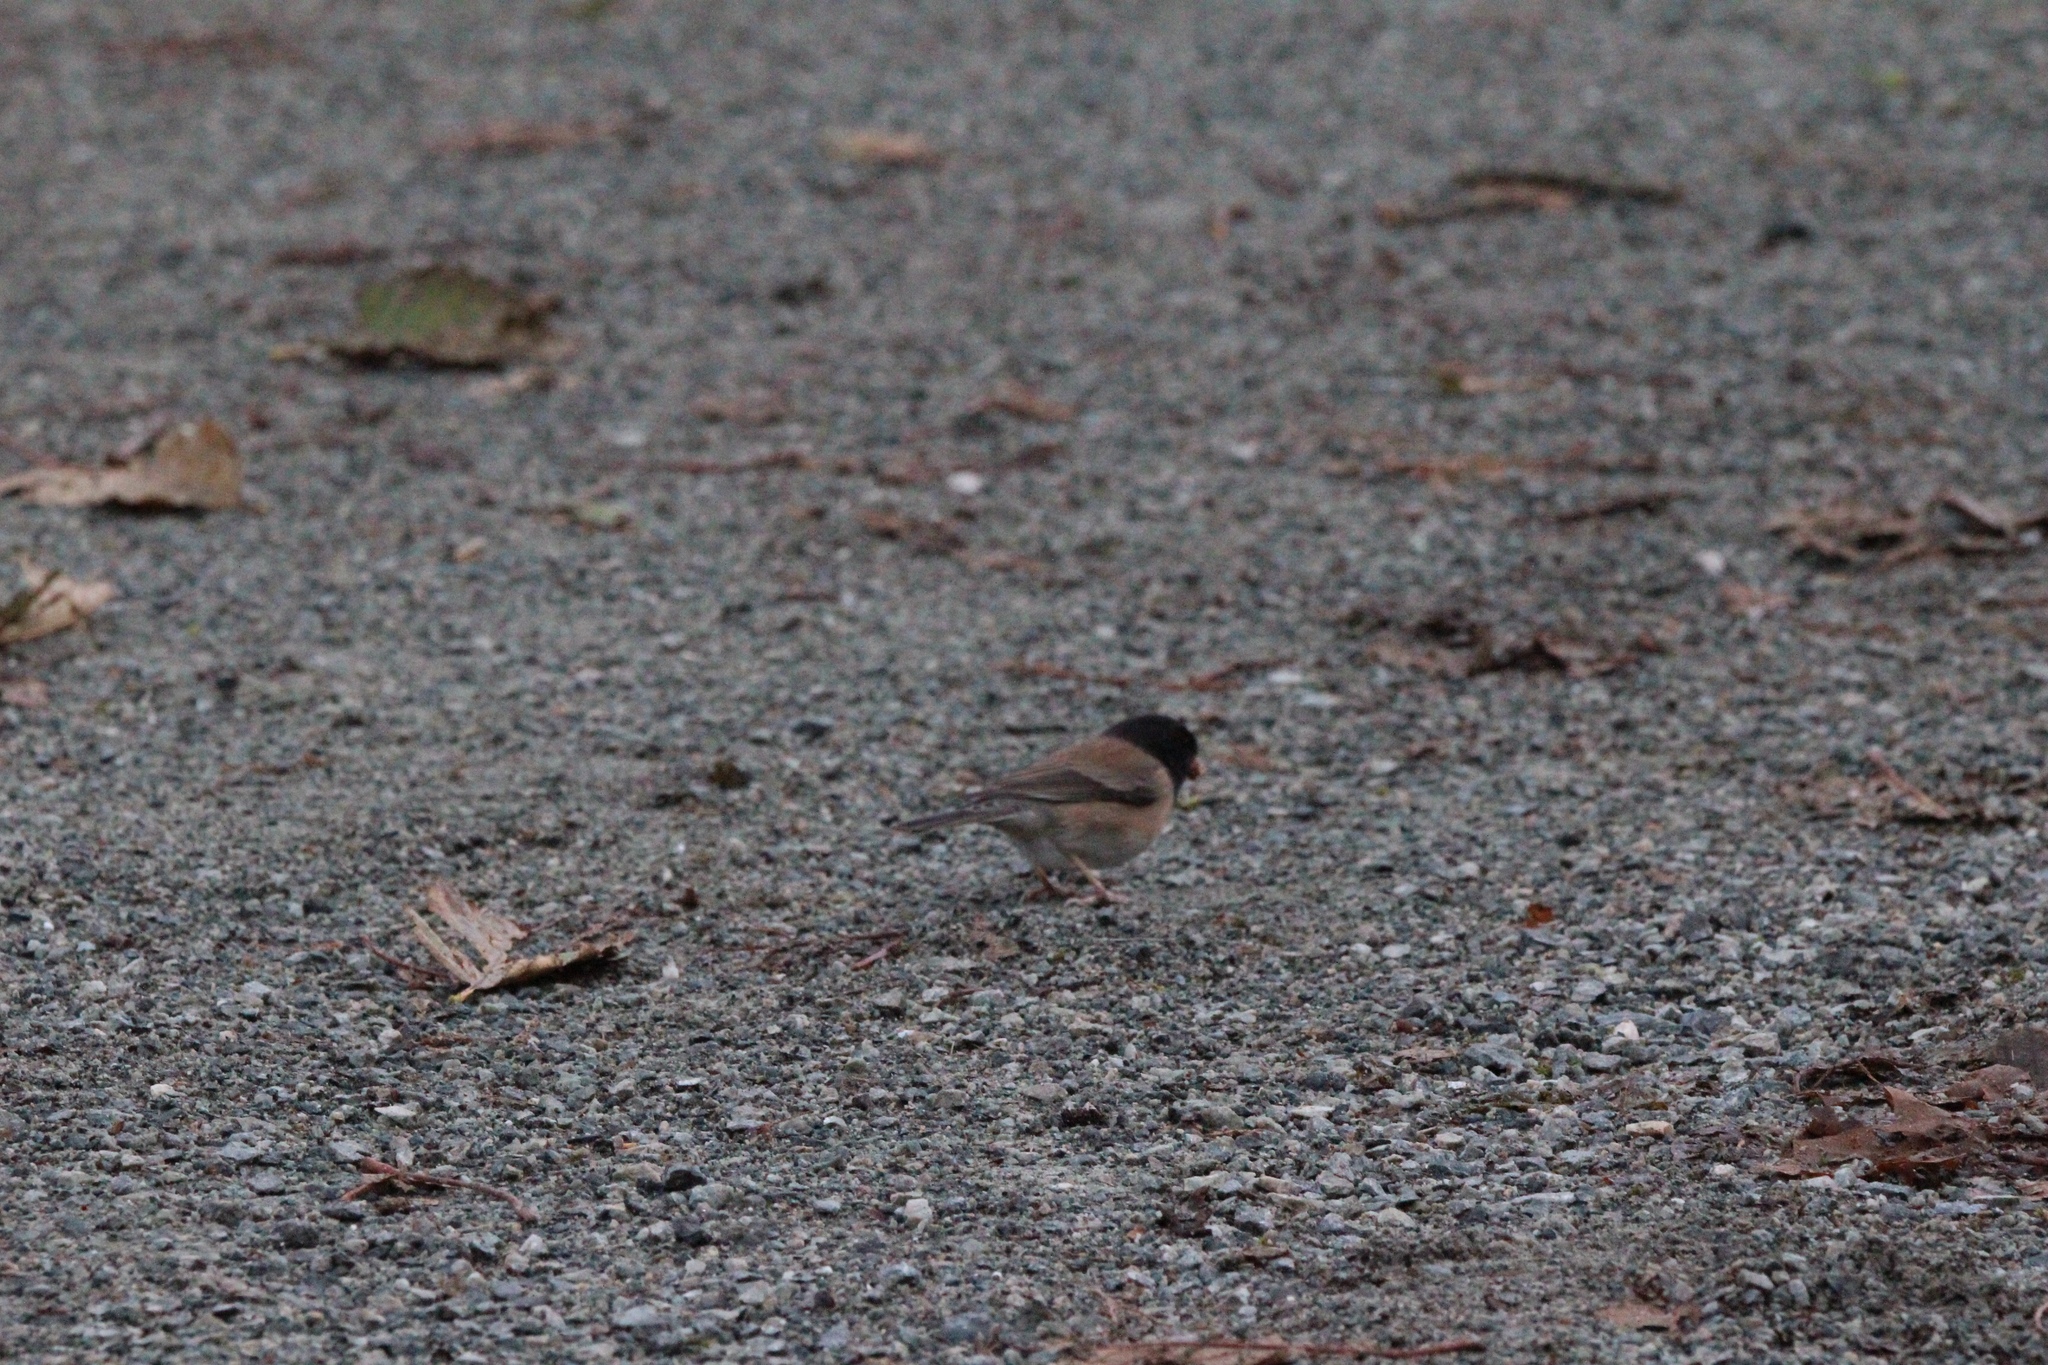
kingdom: Animalia
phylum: Chordata
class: Aves
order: Passeriformes
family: Passerellidae
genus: Junco
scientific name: Junco hyemalis
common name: Dark-eyed junco
